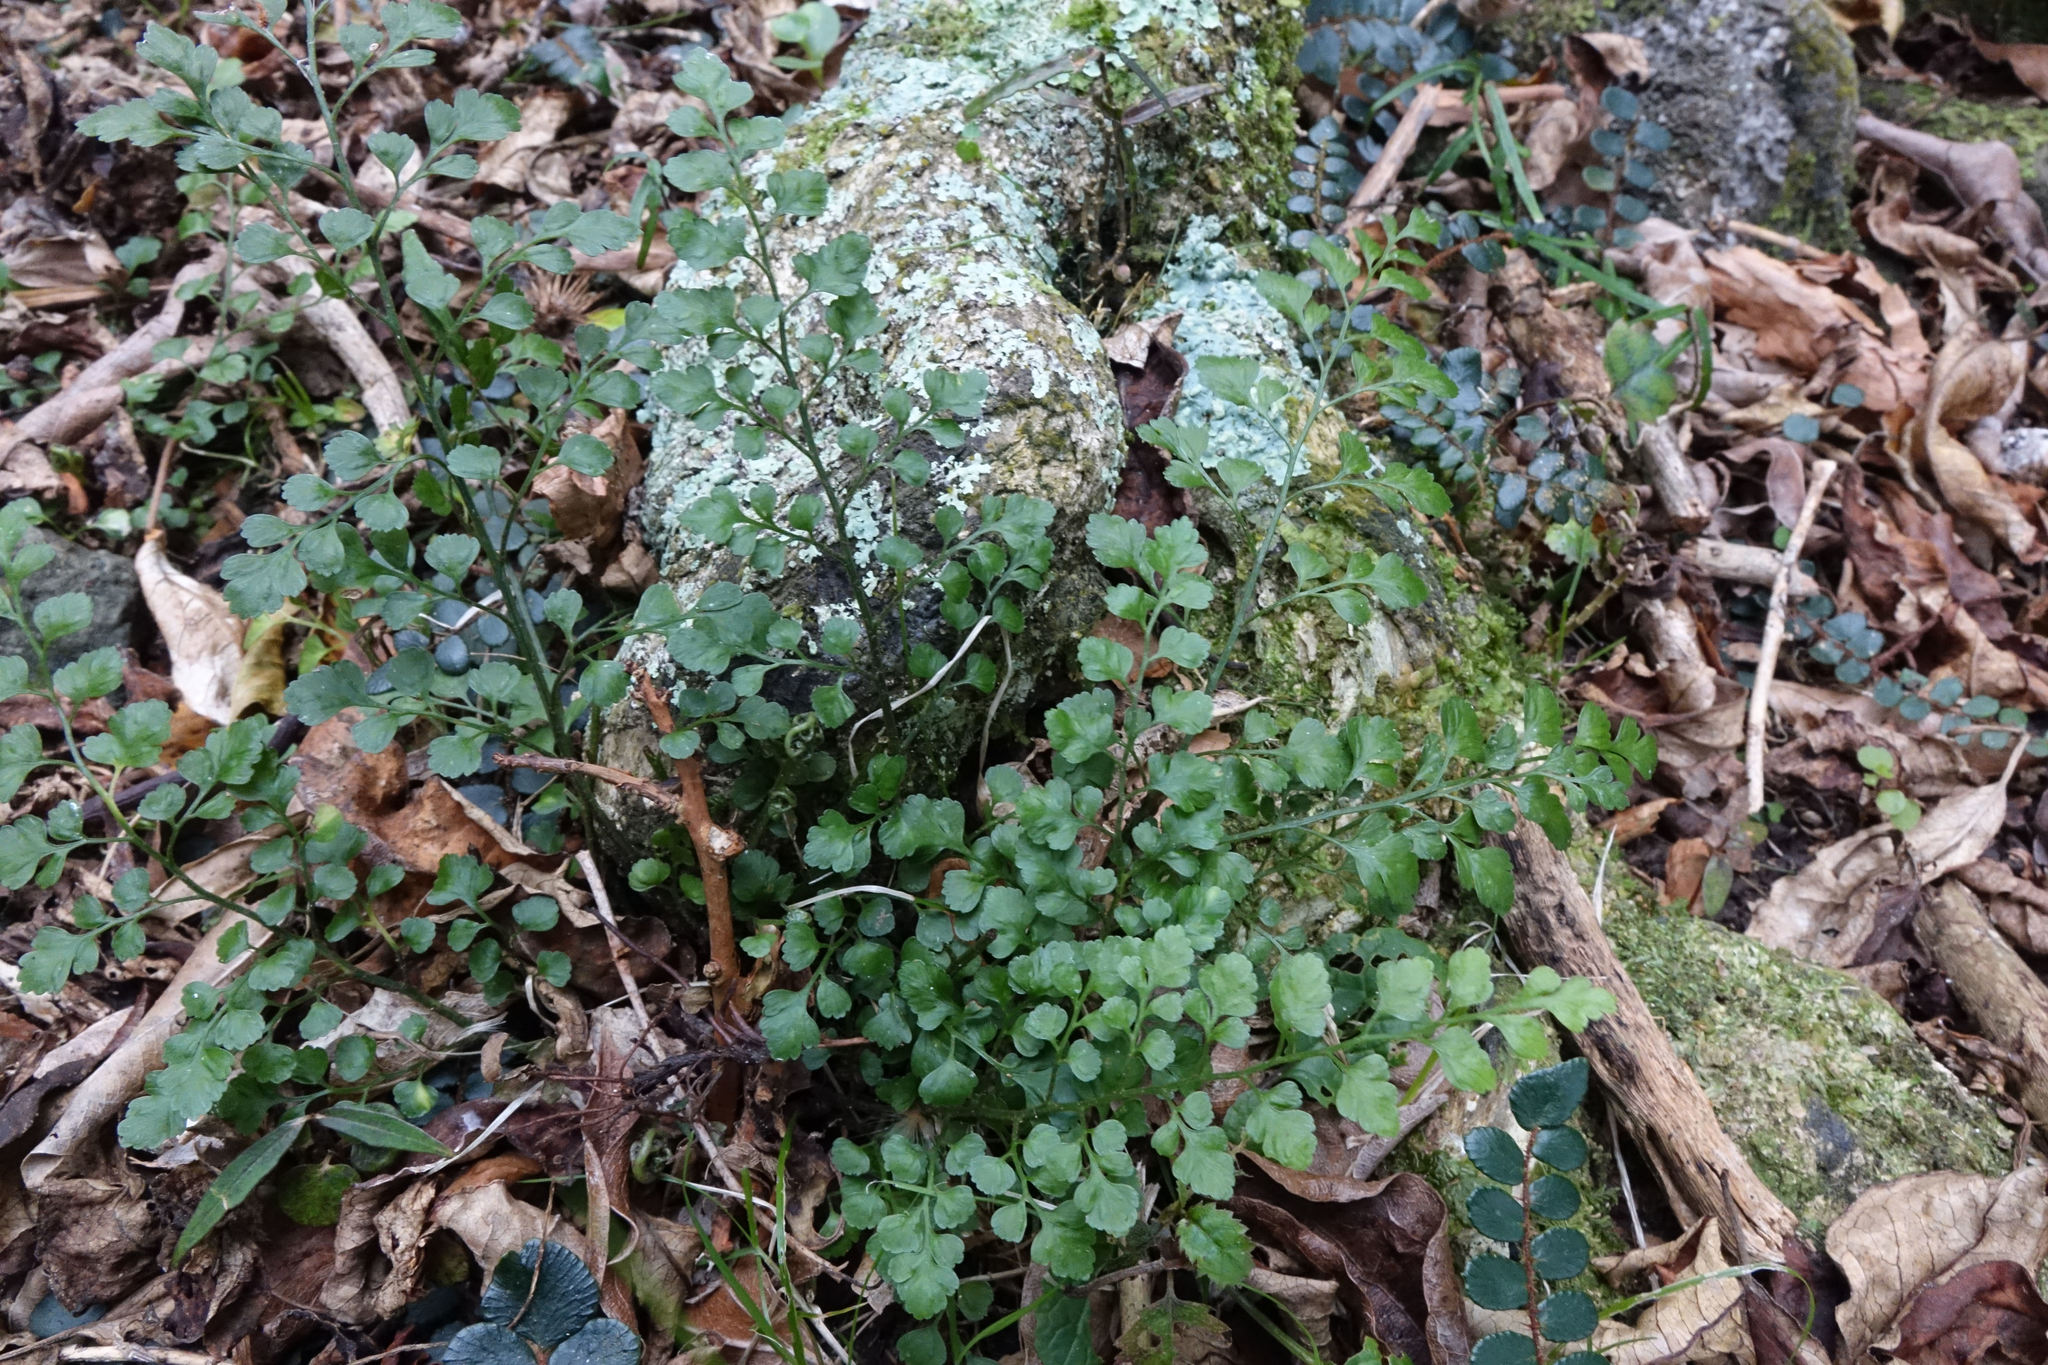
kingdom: Plantae
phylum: Tracheophyta
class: Polypodiopsida
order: Polypodiales
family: Aspleniaceae
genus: Asplenium
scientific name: Asplenium hookerianum
